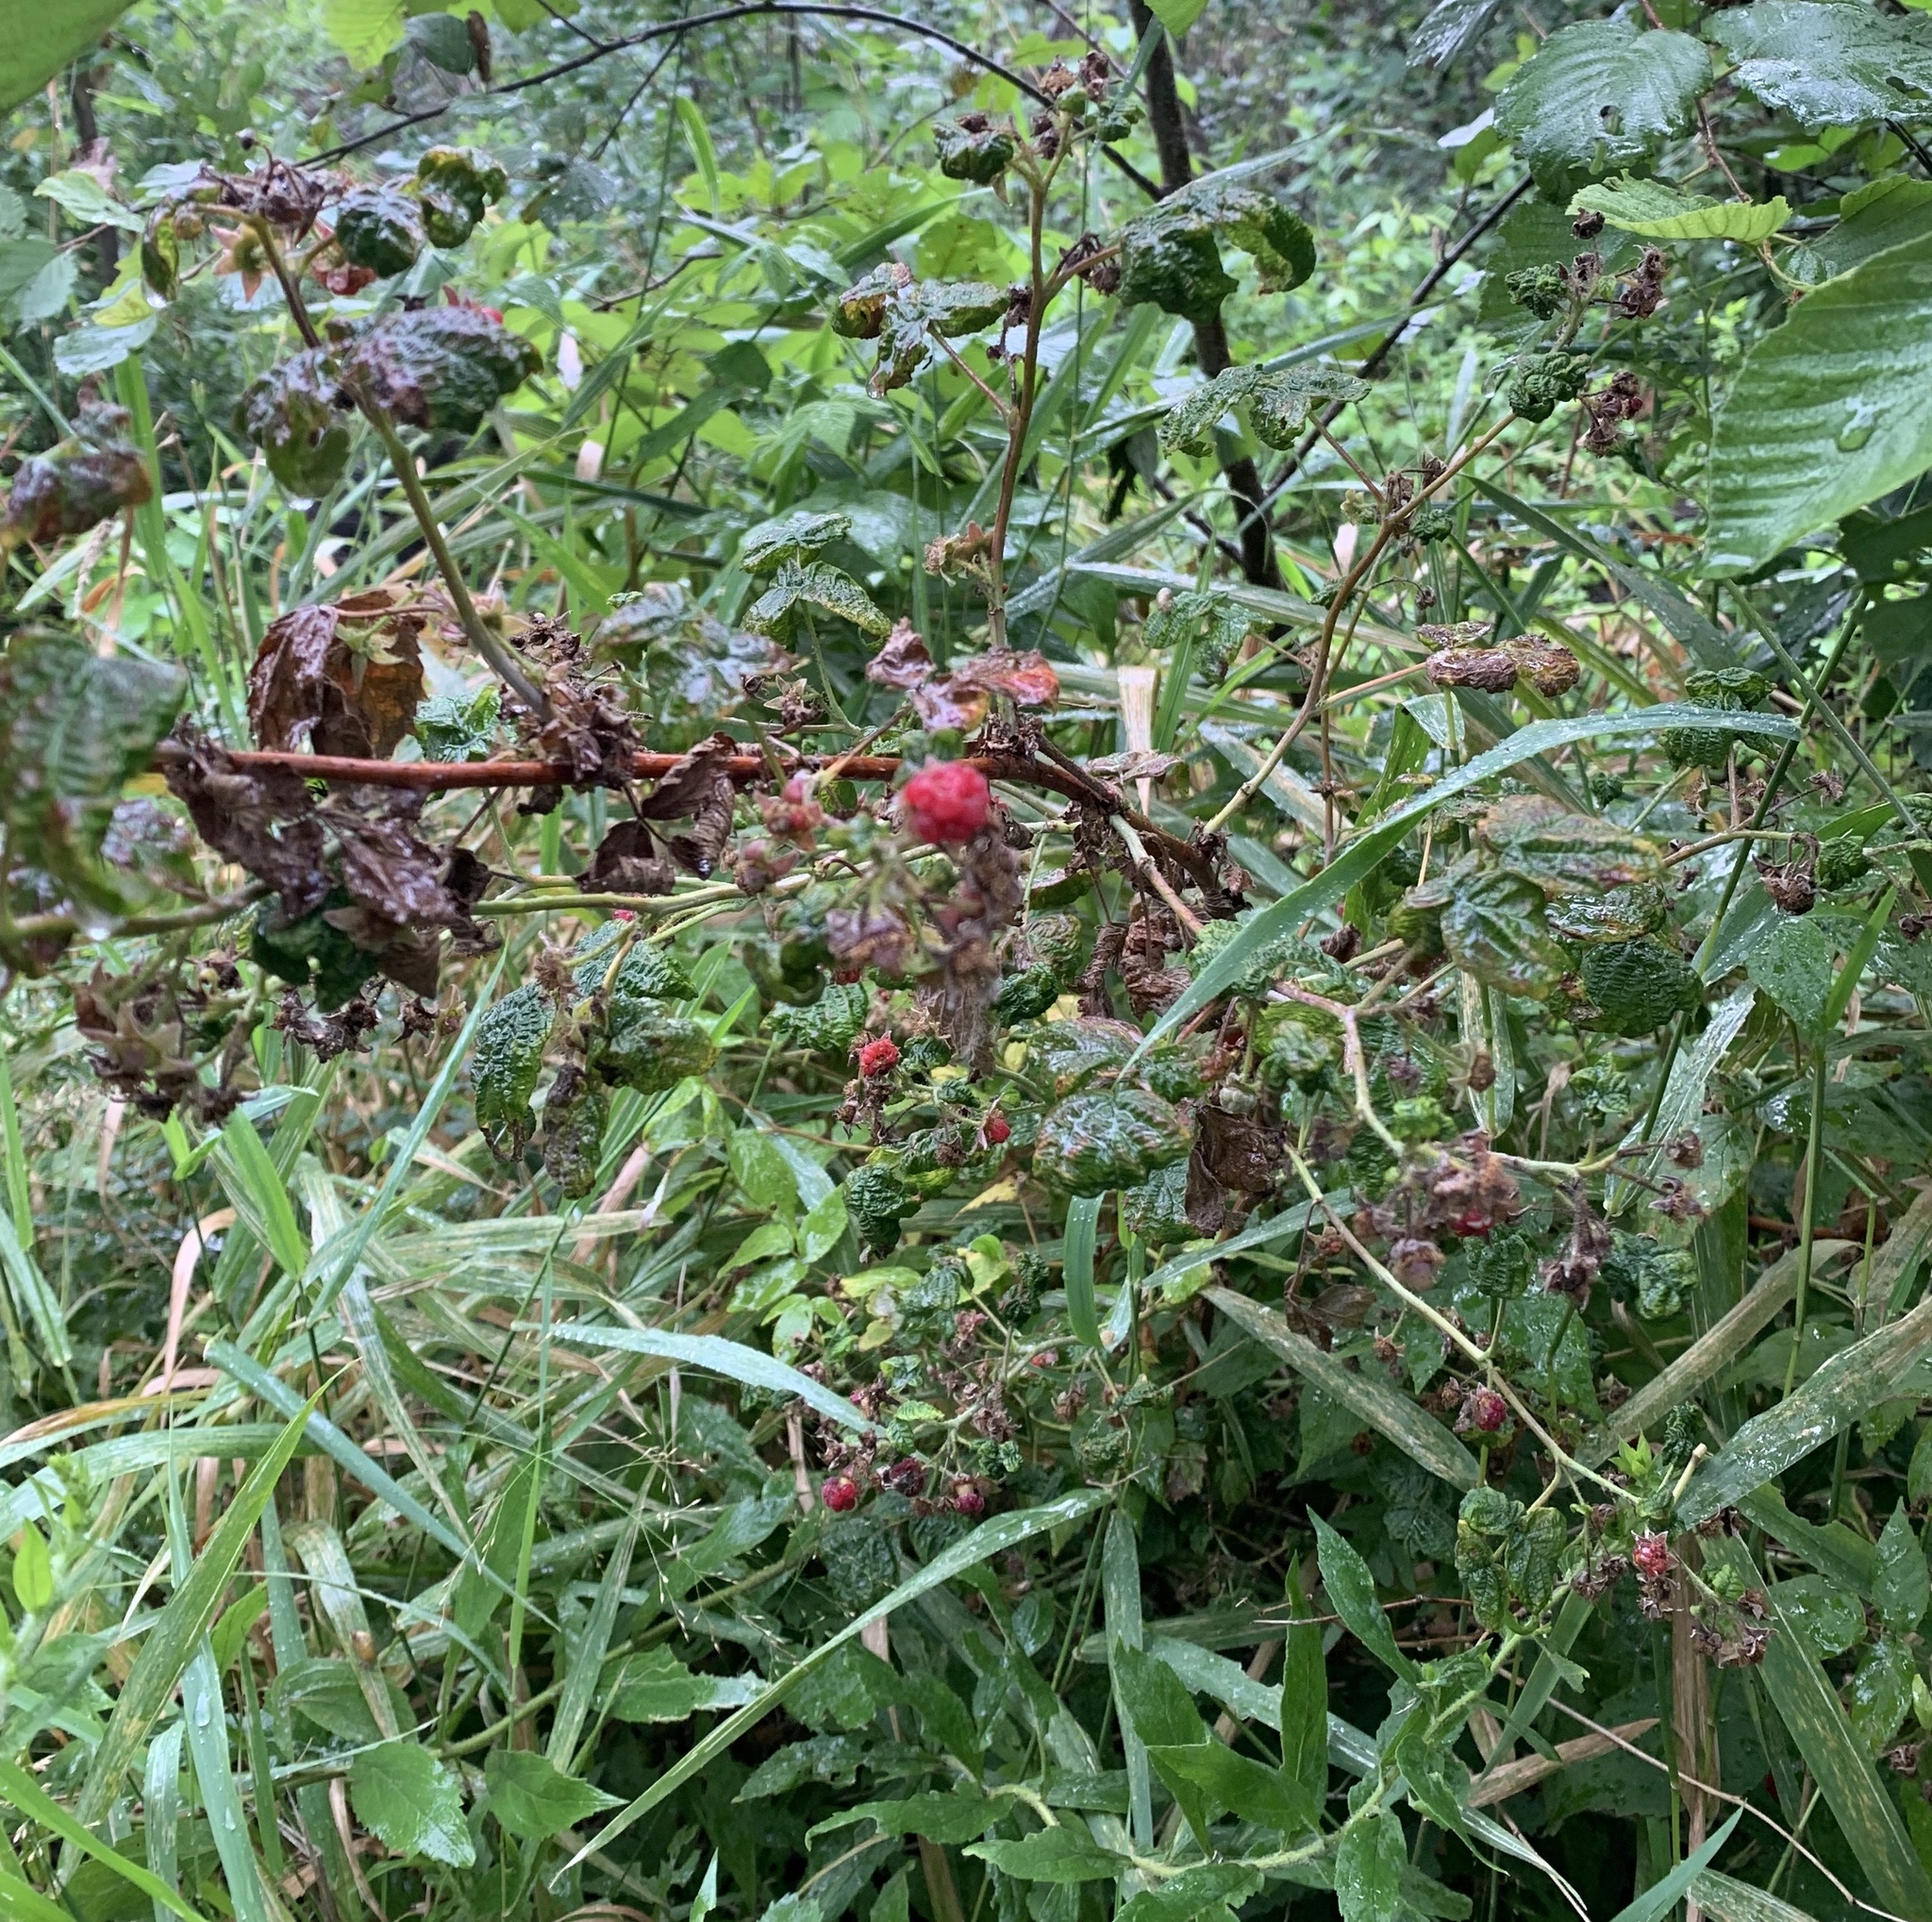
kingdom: Plantae
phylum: Tracheophyta
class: Magnoliopsida
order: Rosales
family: Rosaceae
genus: Rubus
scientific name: Rubus idaeus
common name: Raspberry
